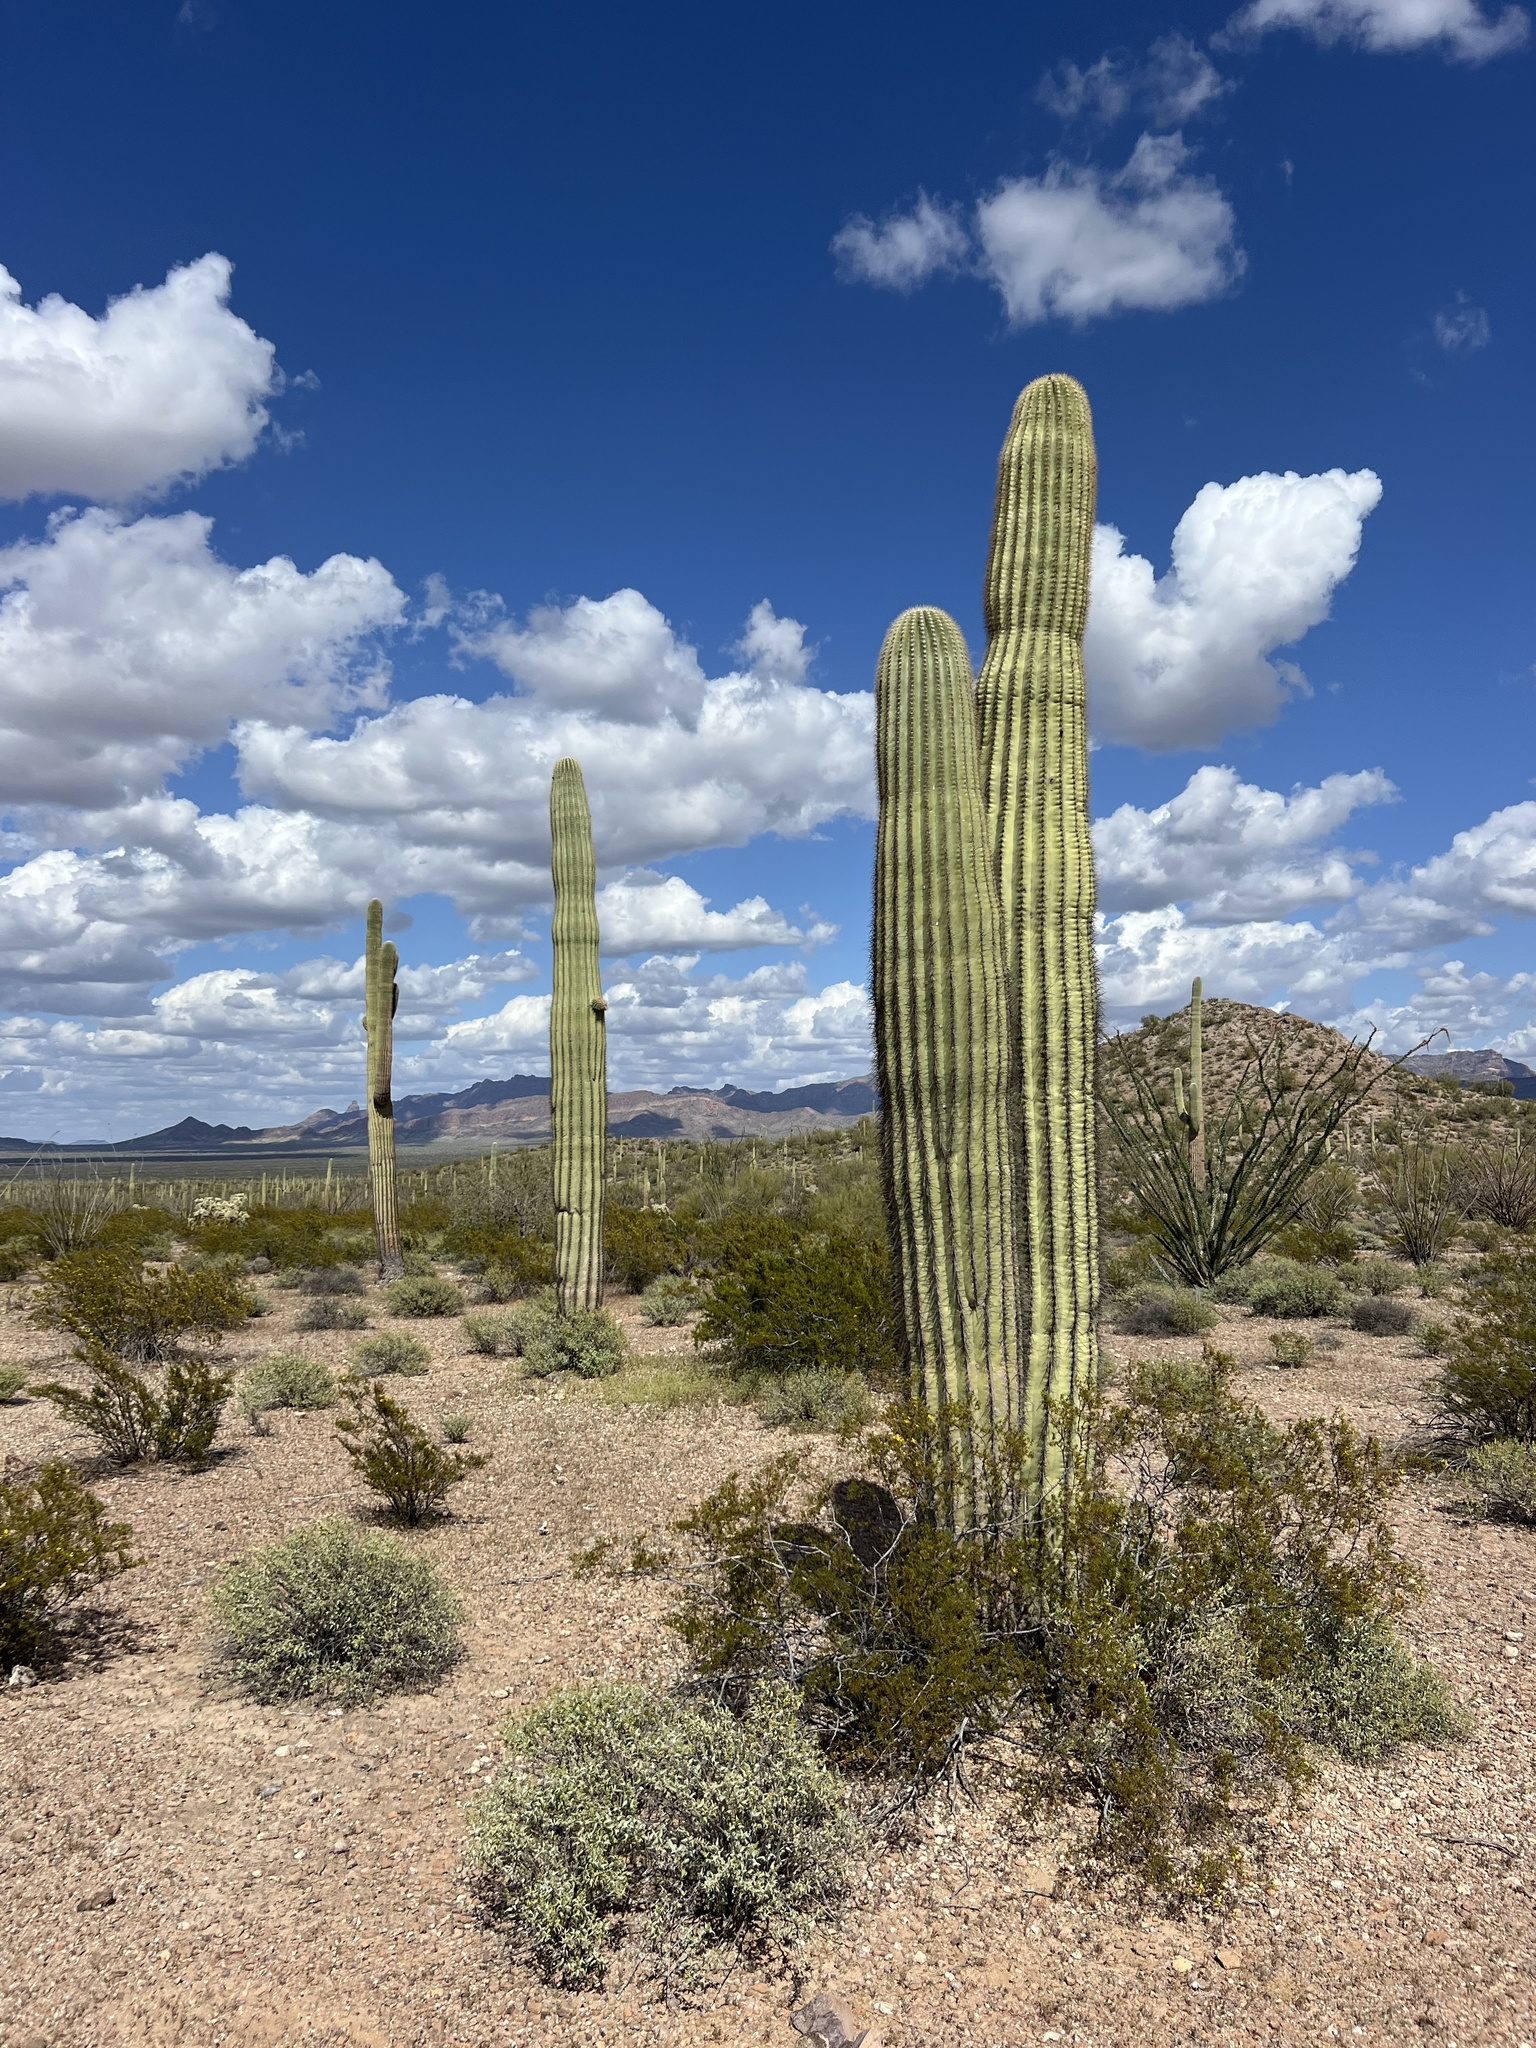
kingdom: Plantae
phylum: Tracheophyta
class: Magnoliopsida
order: Caryophyllales
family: Cactaceae
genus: Carnegiea
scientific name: Carnegiea gigantea
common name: Saguaro
